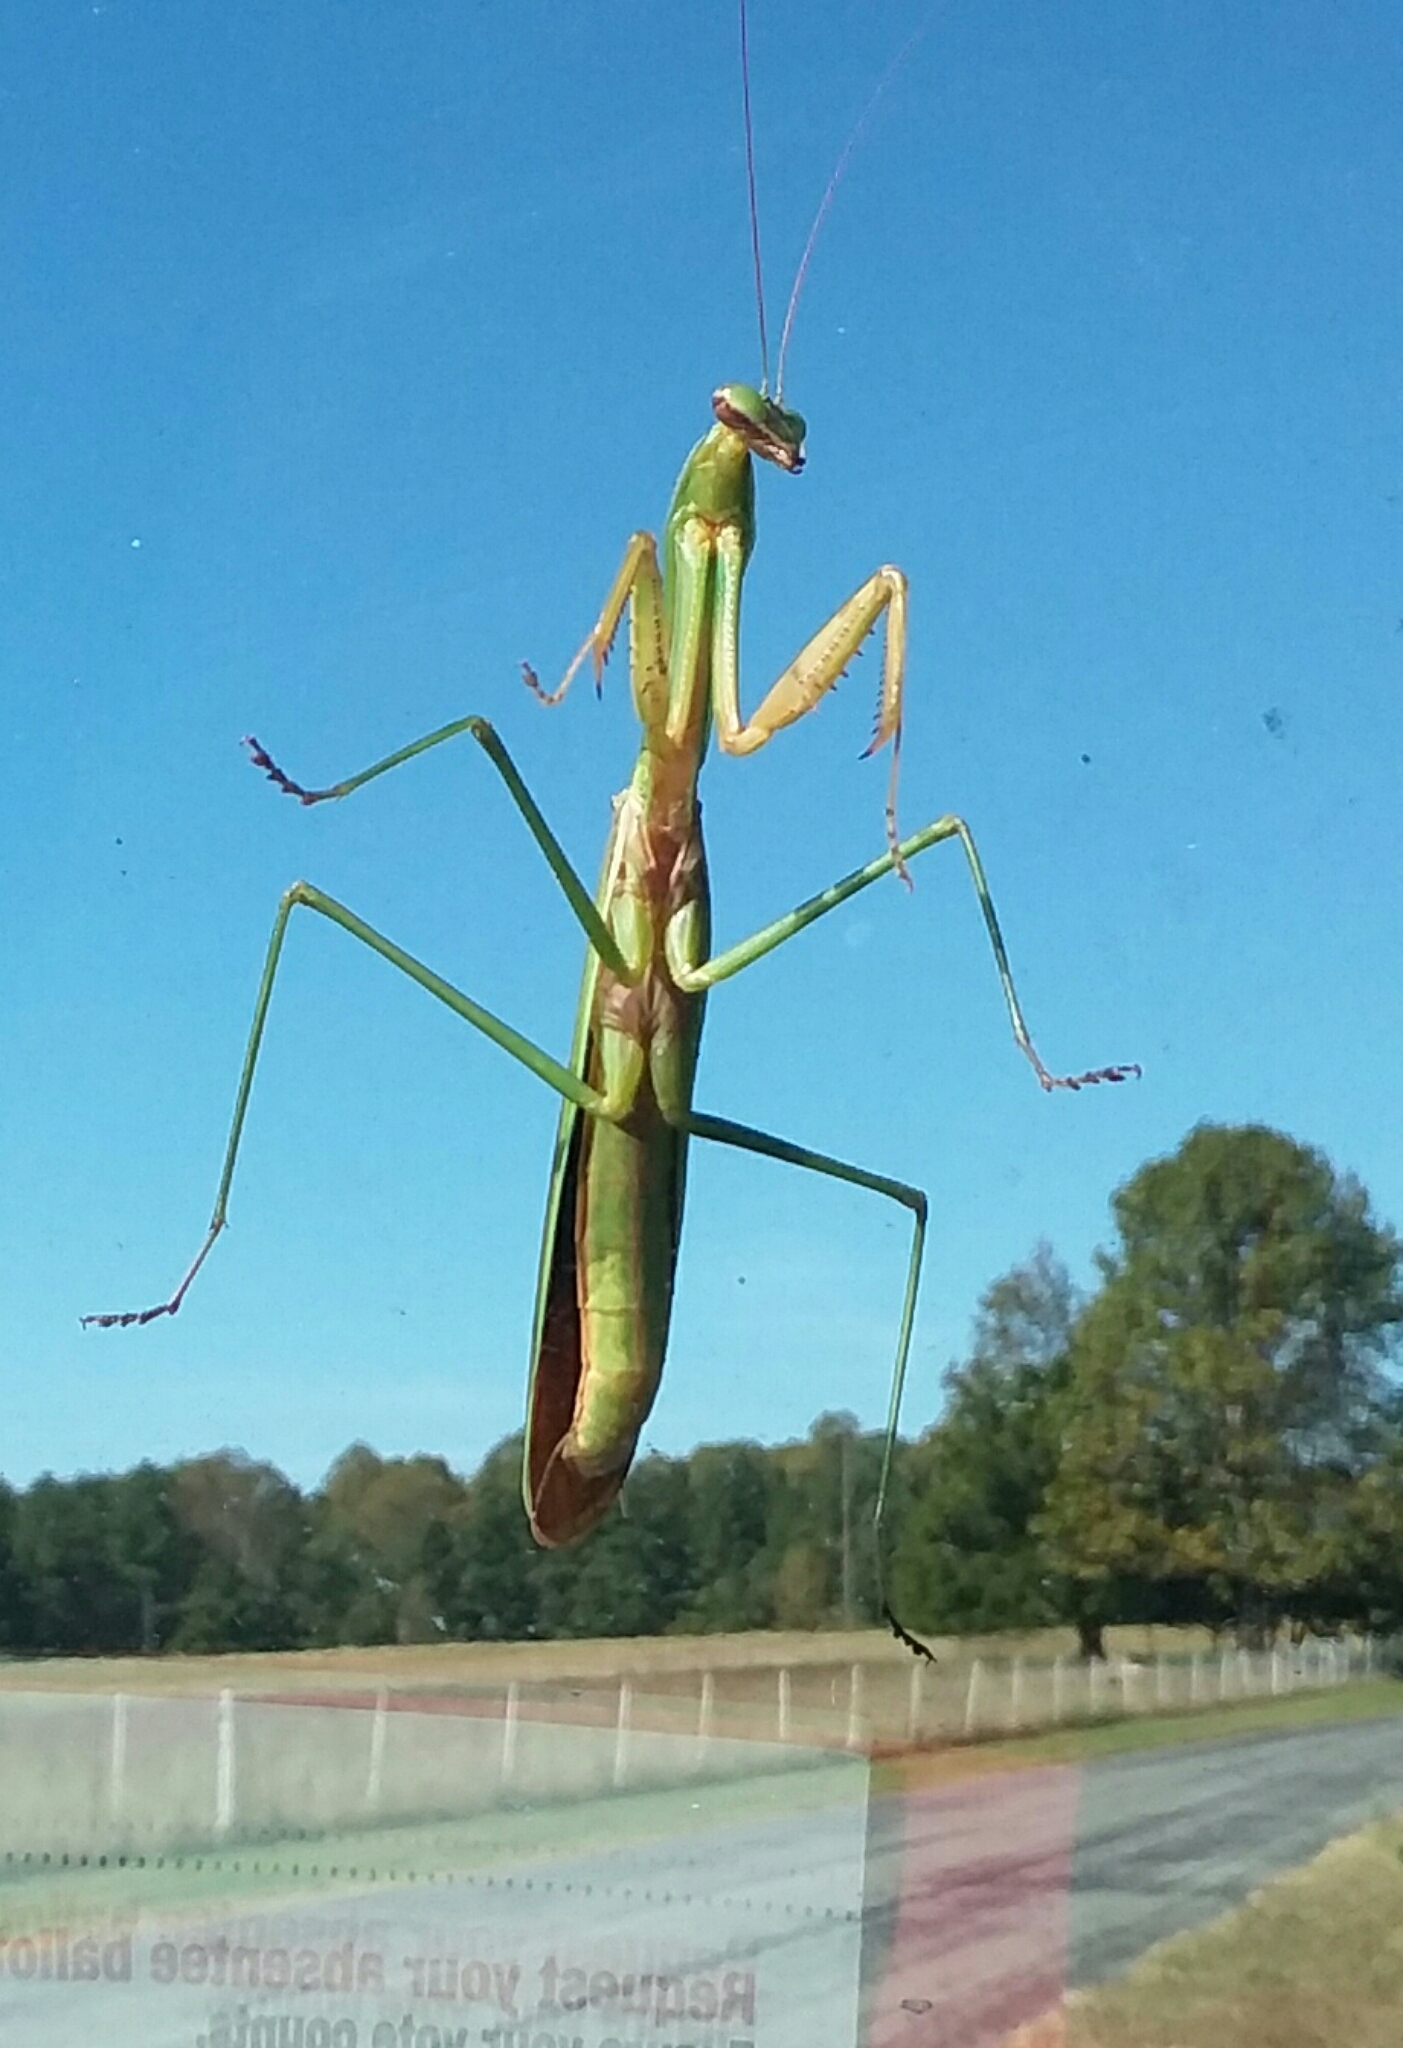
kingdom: Animalia
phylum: Arthropoda
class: Insecta
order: Mantodea
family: Mantidae
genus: Tenodera
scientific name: Tenodera sinensis
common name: Chinese mantis
